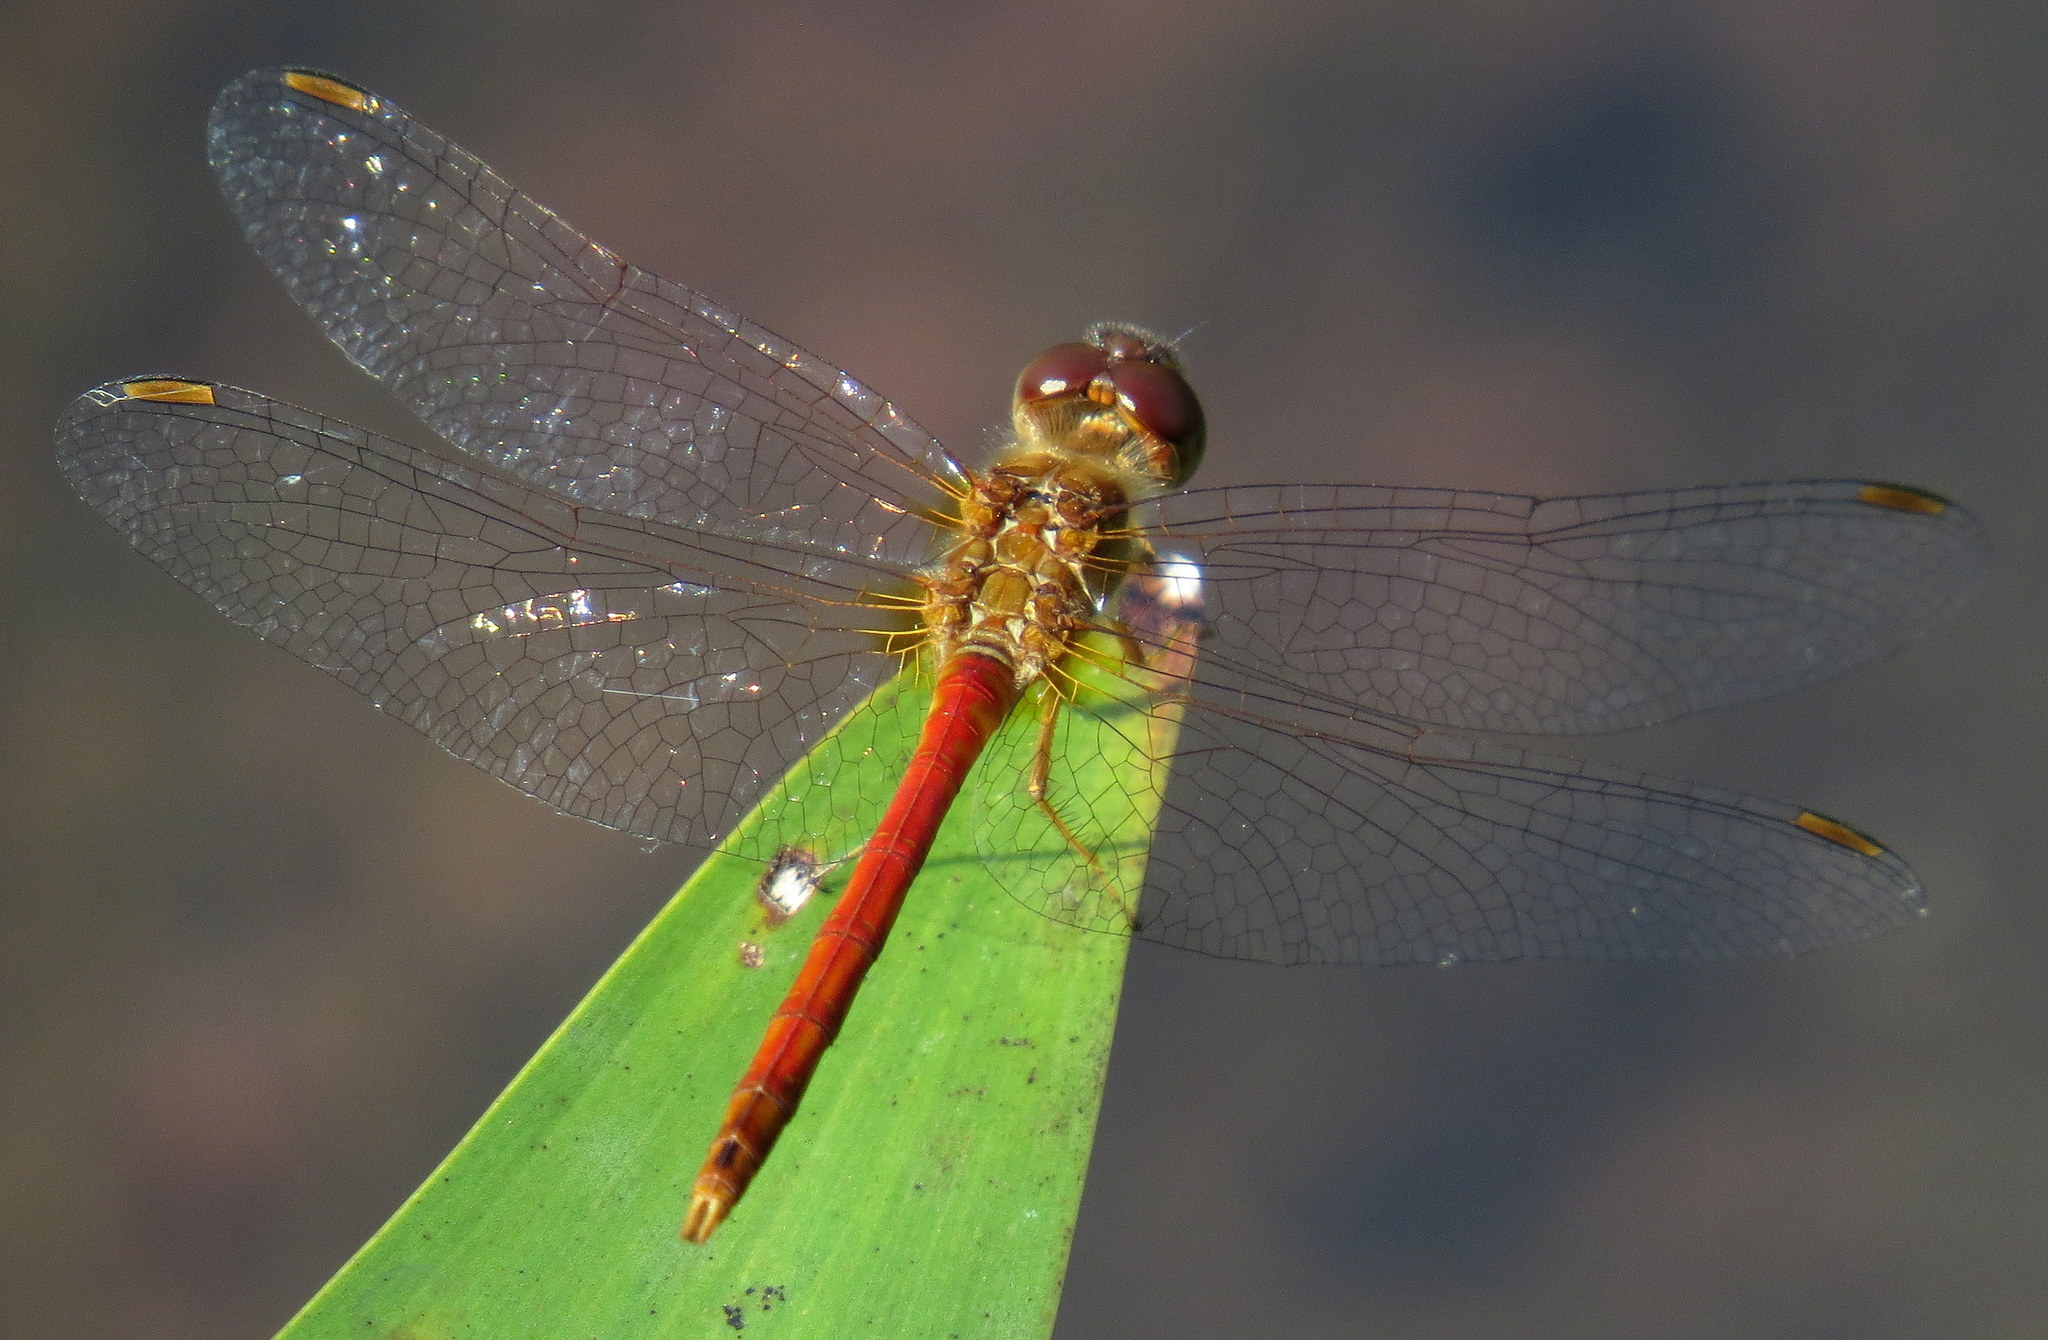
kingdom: Animalia
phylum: Arthropoda
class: Insecta
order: Odonata
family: Libellulidae
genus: Sympetrum
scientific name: Sympetrum vicinum
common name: Autumn meadowhawk
